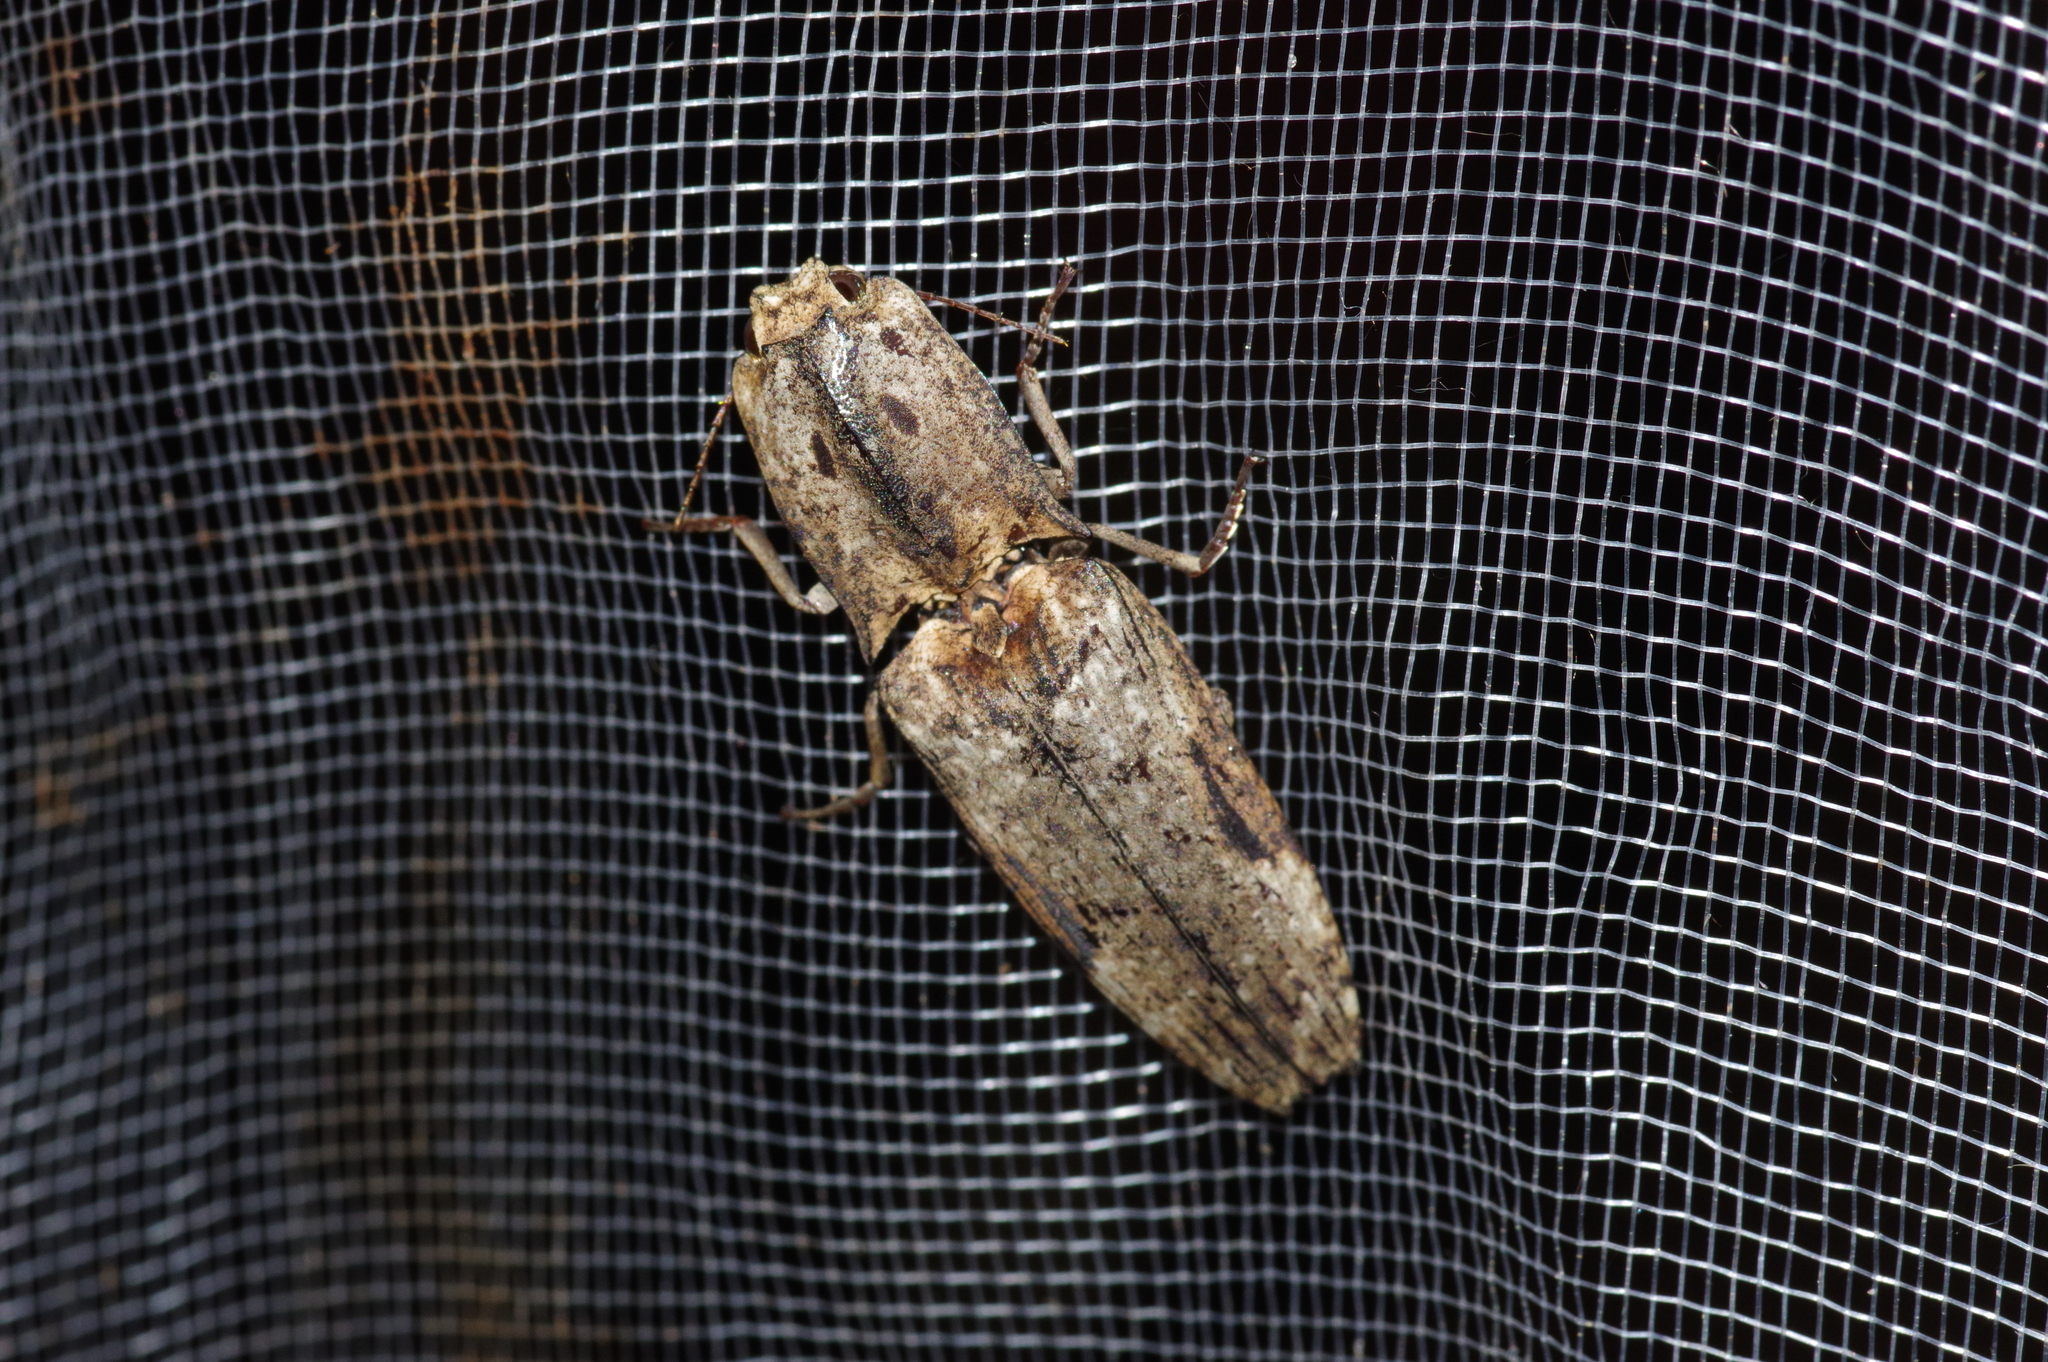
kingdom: Animalia
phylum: Arthropoda
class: Insecta
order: Coleoptera
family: Elateridae
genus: Cryptalaus
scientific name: Cryptalaus larvatus
